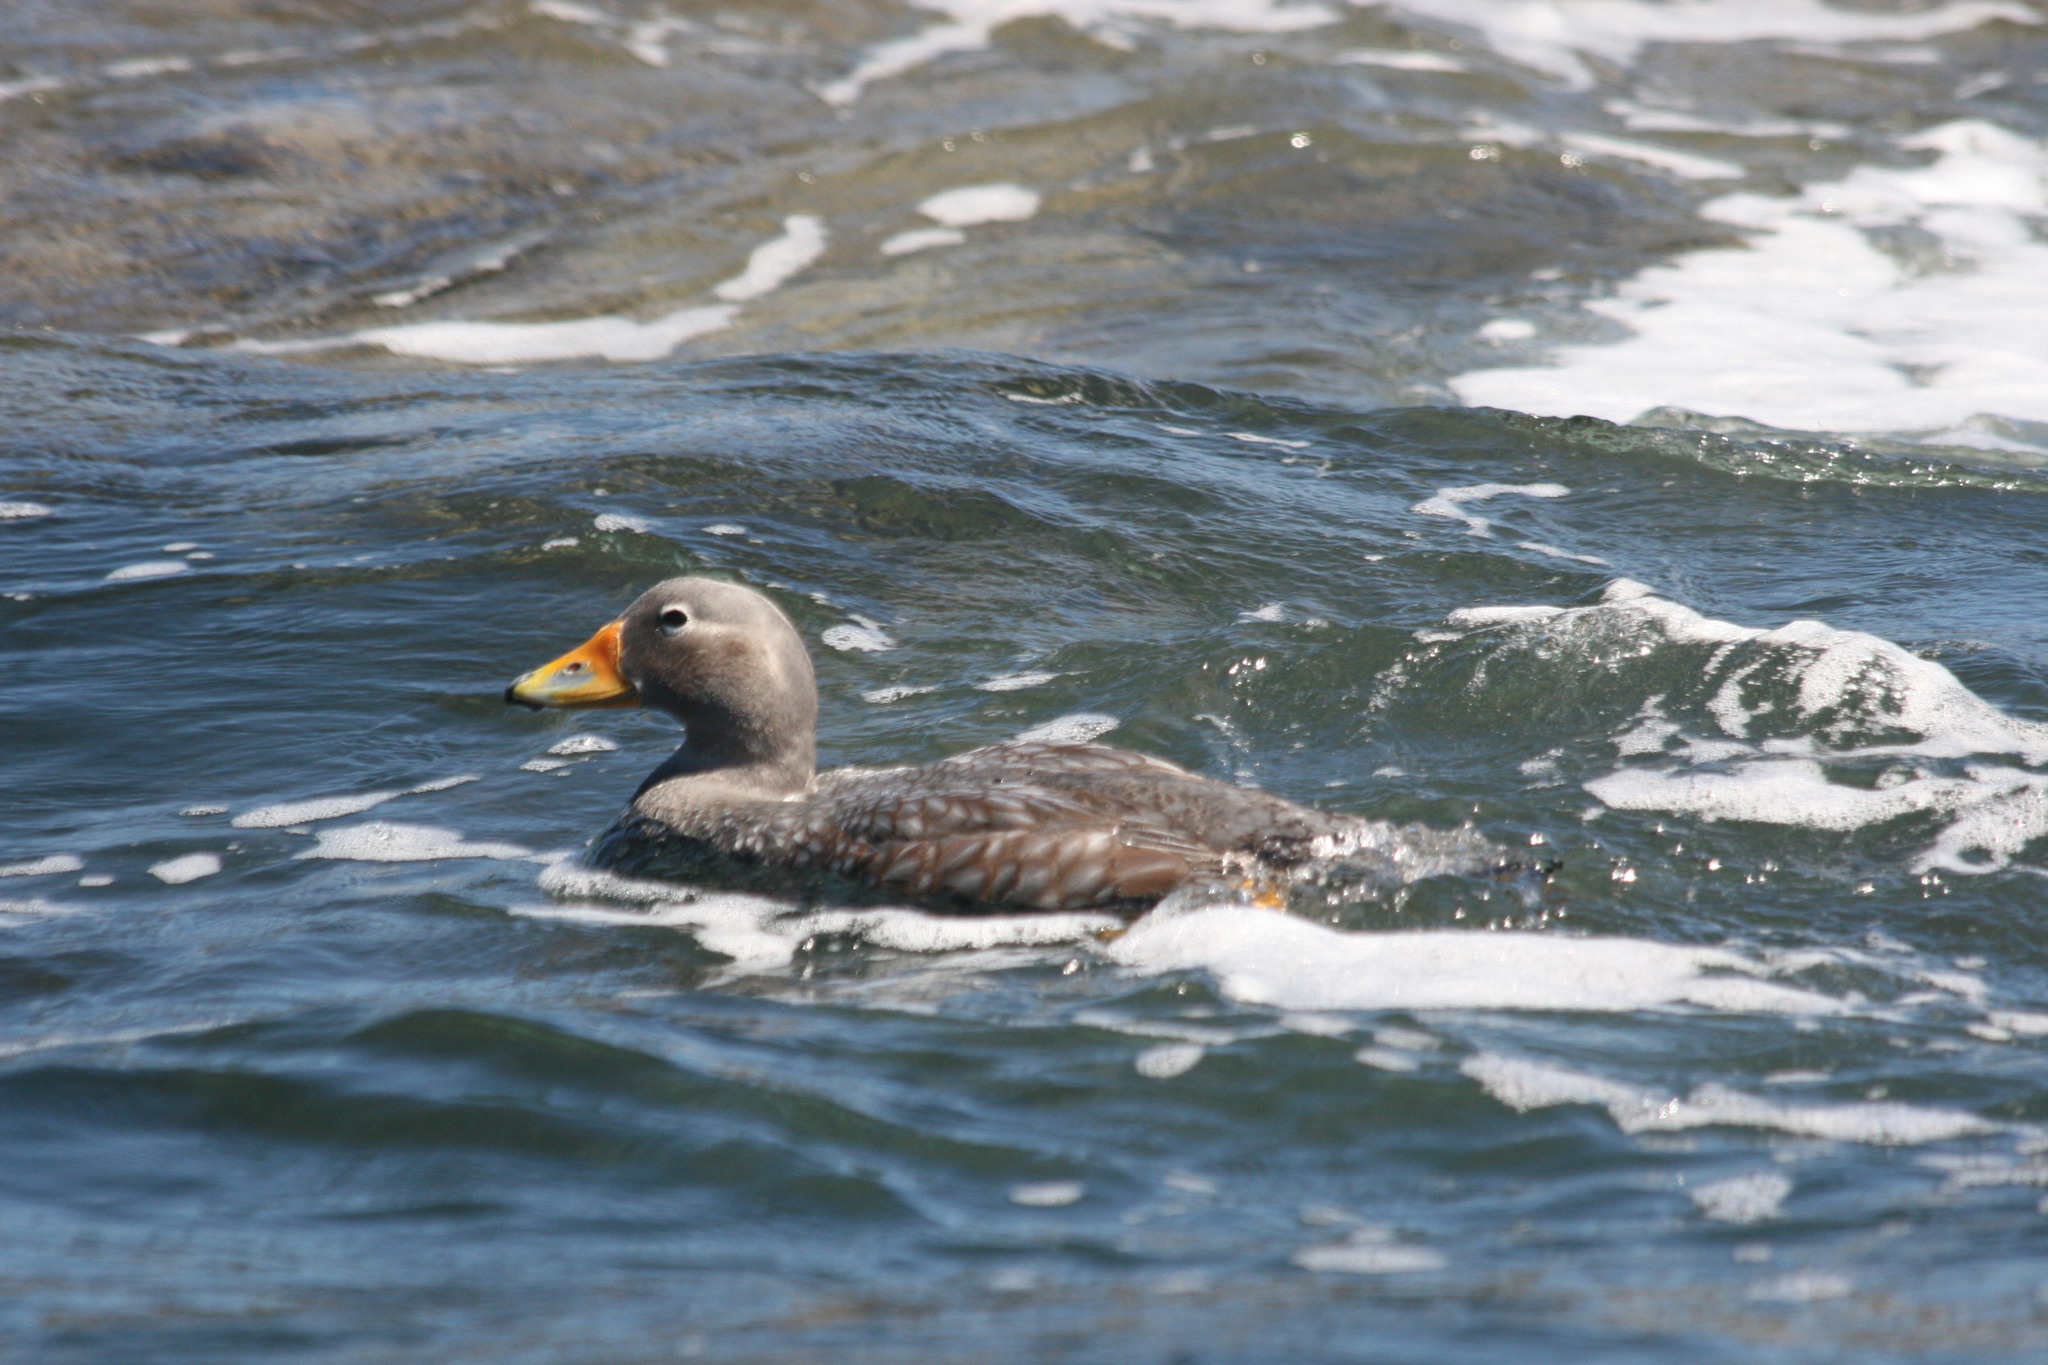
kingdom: Animalia
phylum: Chordata
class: Aves
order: Anseriformes
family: Anatidae
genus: Tachyeres
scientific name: Tachyeres pteneres
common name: Fuegian steamer duck
